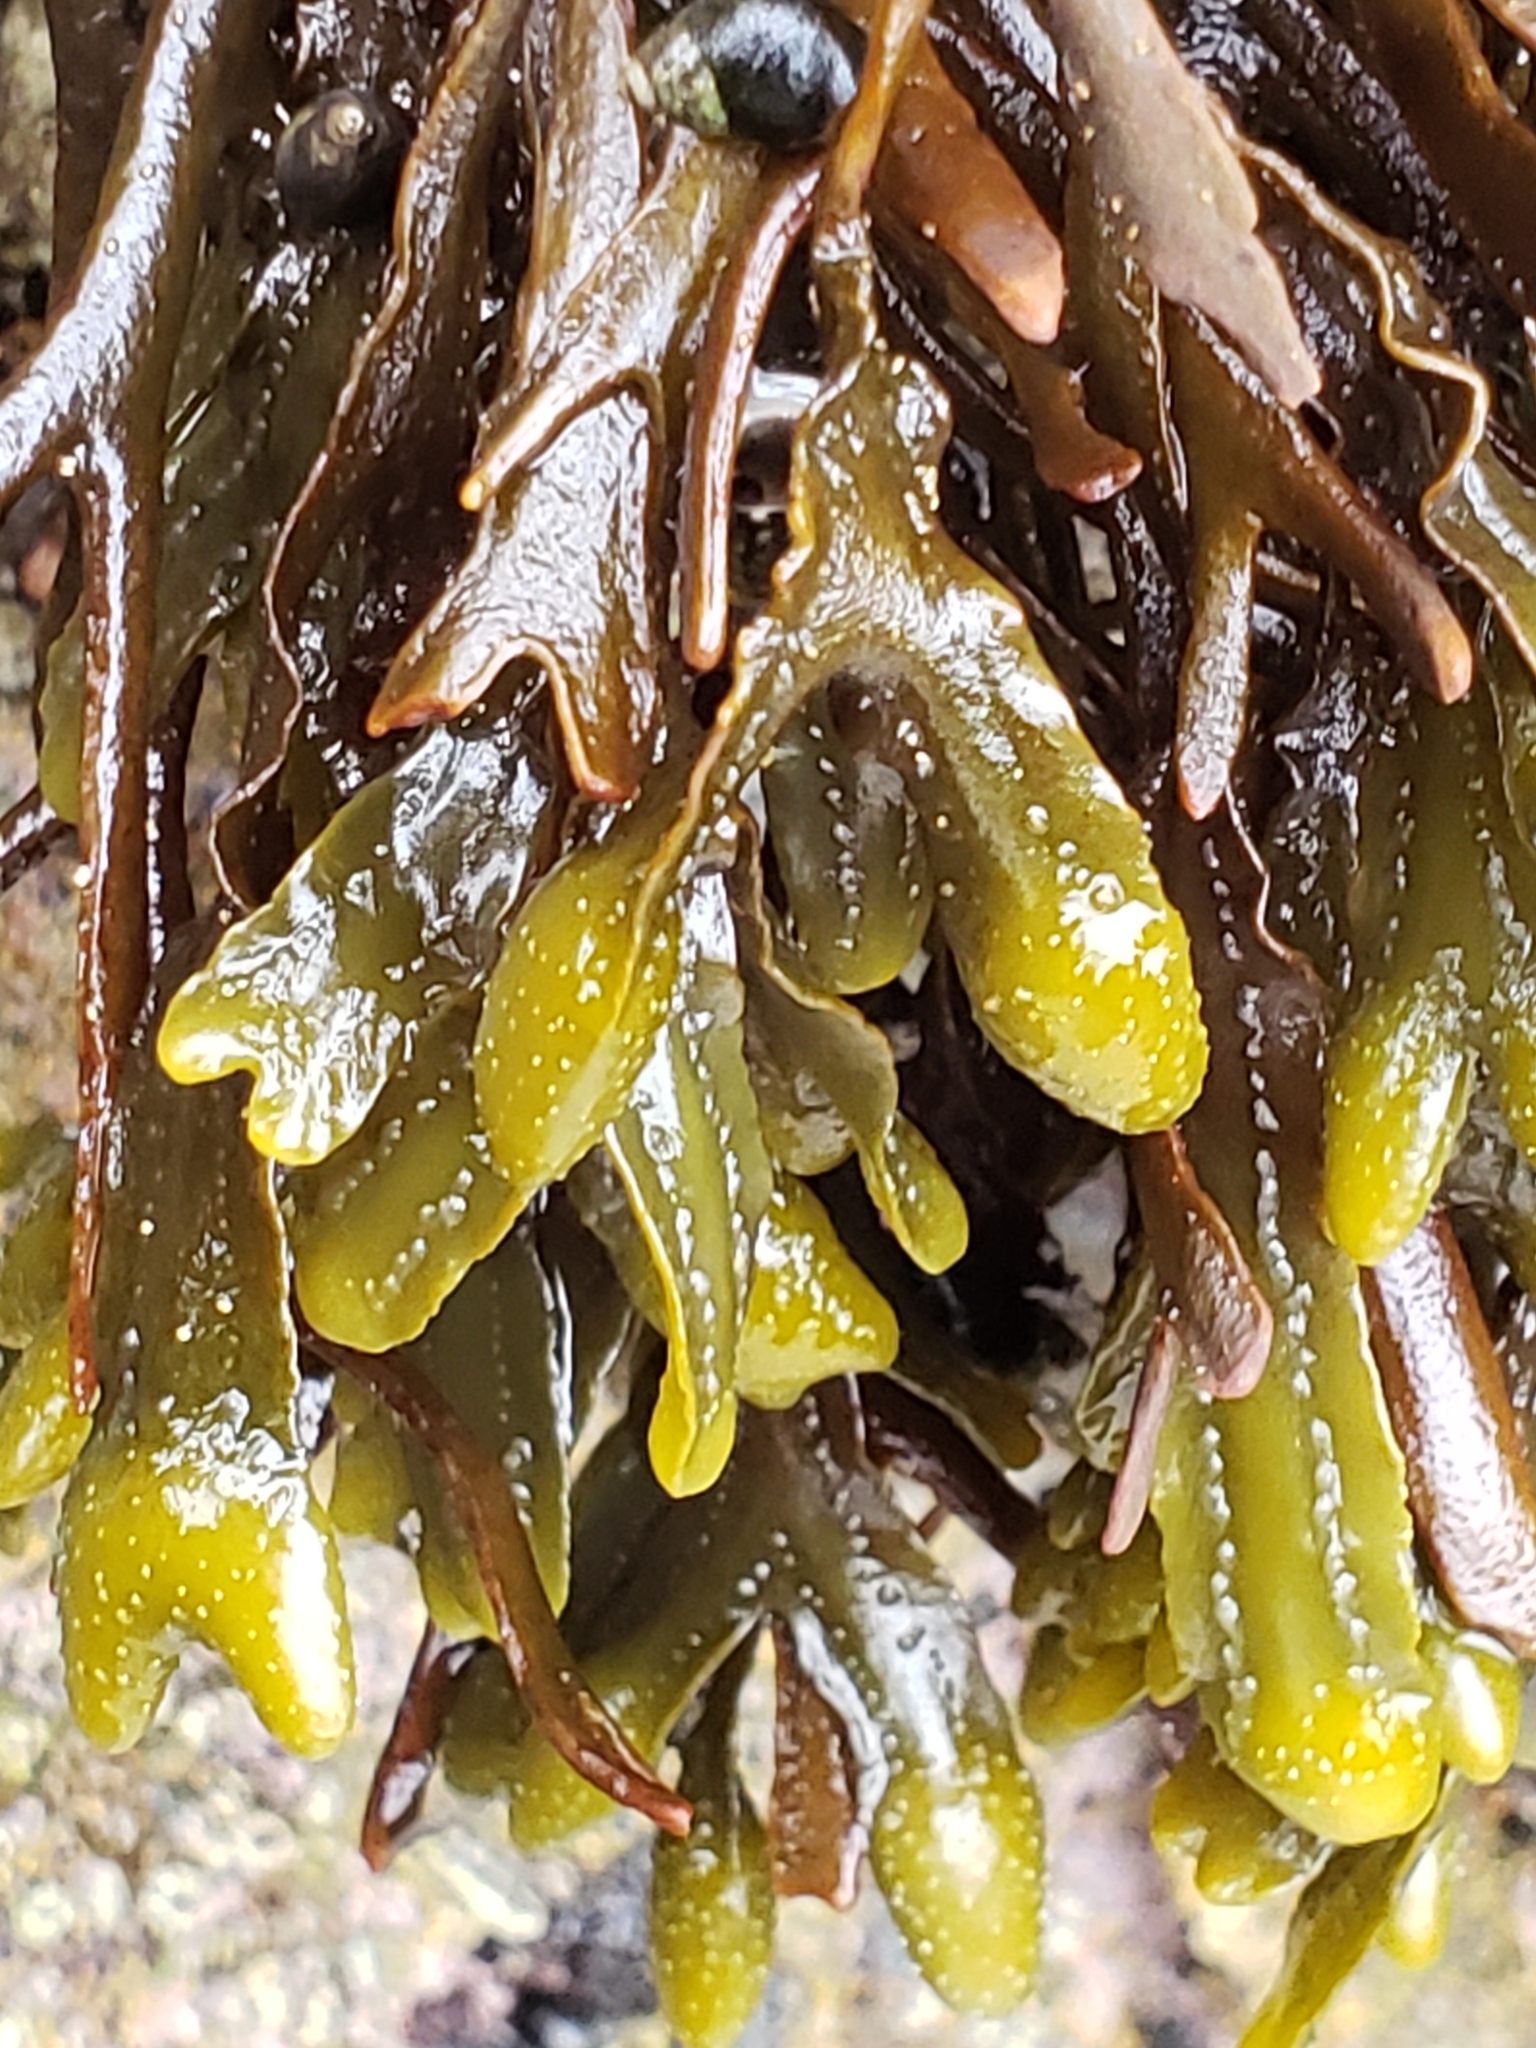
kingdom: Chromista
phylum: Ochrophyta
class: Phaeophyceae
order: Fucales
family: Fucaceae
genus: Pelvetiopsis
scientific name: Pelvetiopsis
